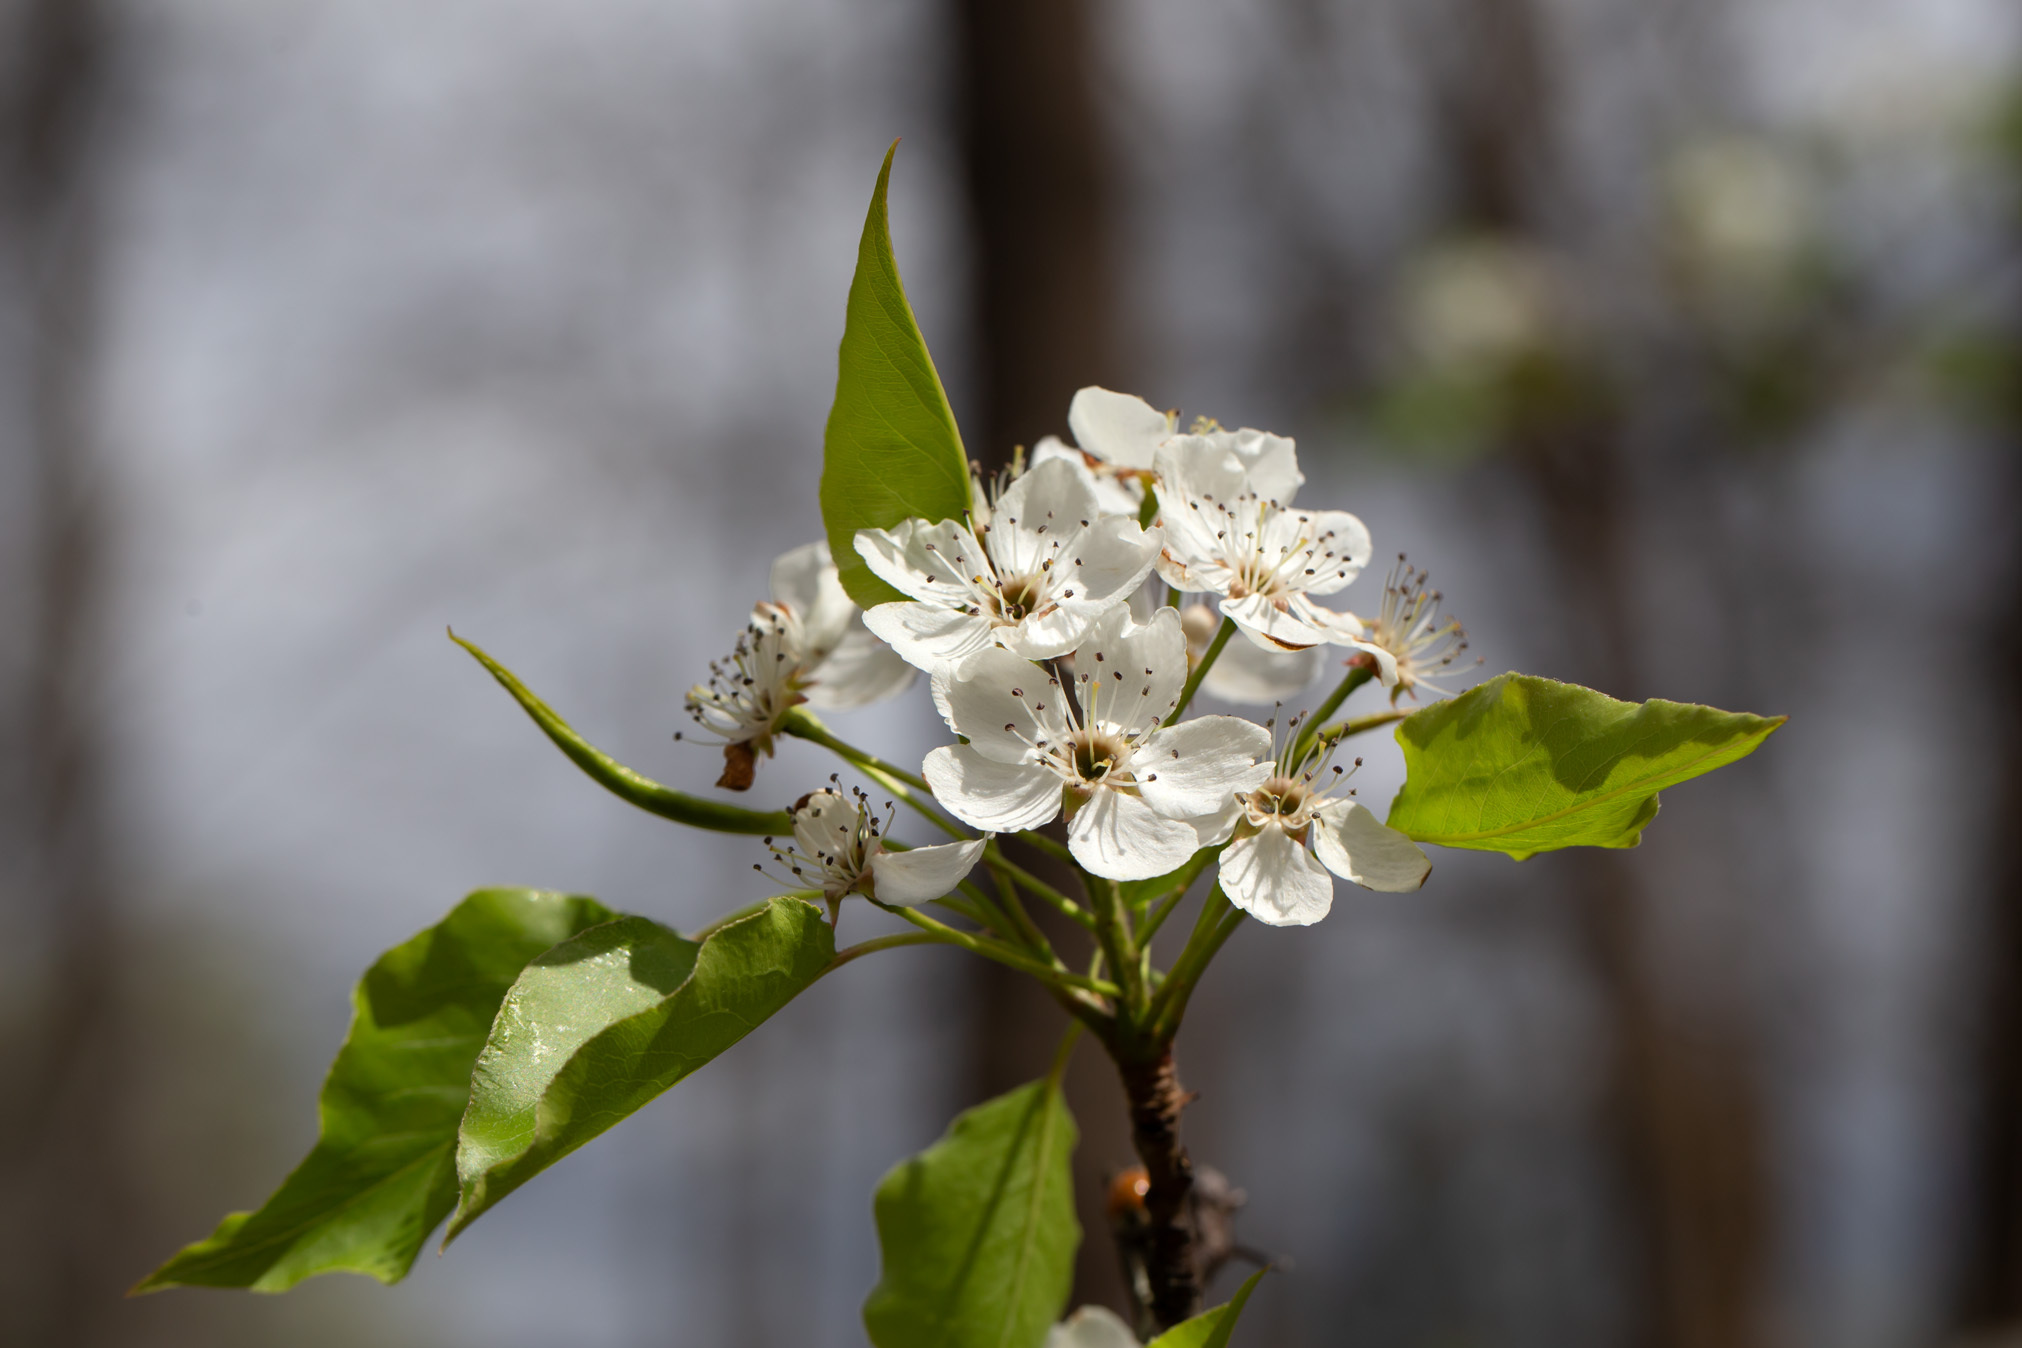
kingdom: Plantae
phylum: Tracheophyta
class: Magnoliopsida
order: Rosales
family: Rosaceae
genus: Pyrus
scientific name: Pyrus calleryana
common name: Callery pear
